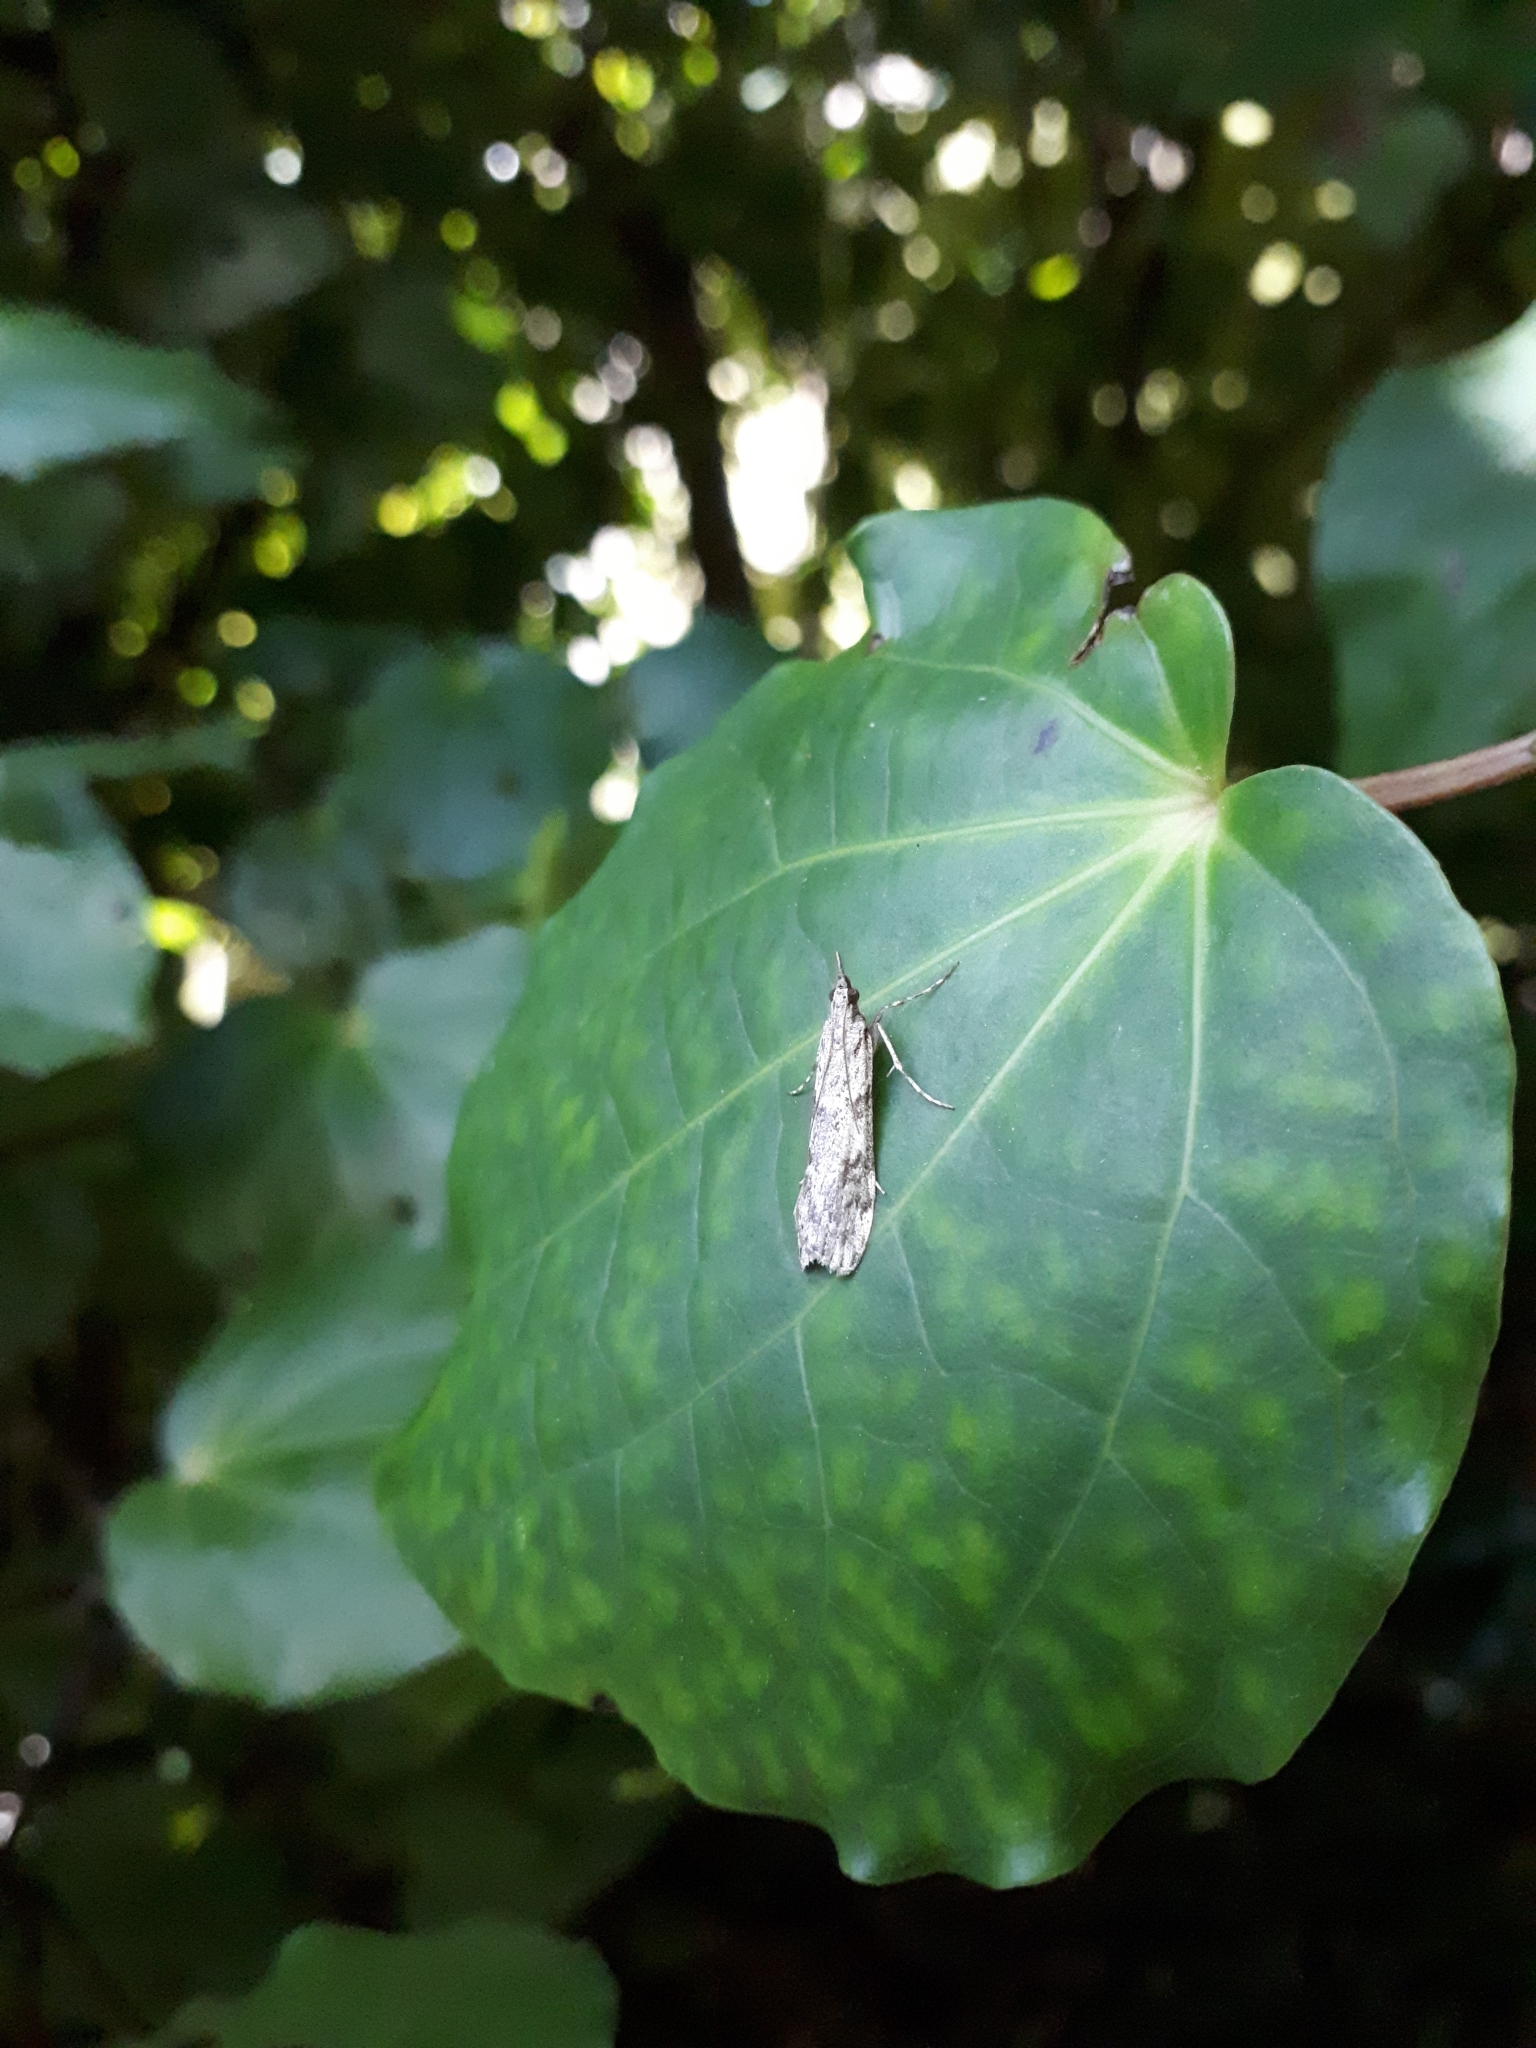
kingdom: Animalia
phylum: Arthropoda
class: Insecta
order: Lepidoptera
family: Crambidae
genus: Scoparia
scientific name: Scoparia halopis
